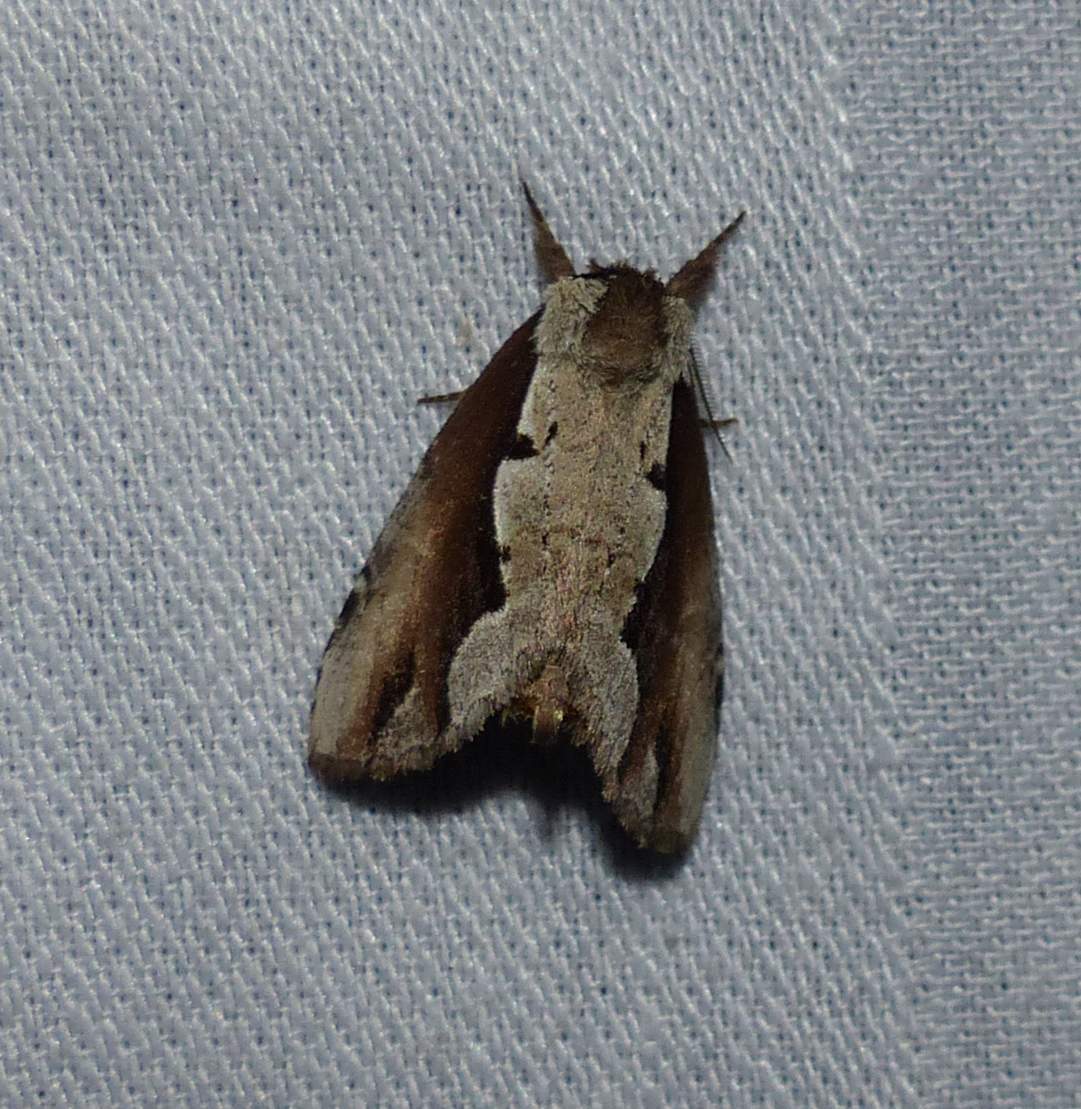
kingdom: Animalia
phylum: Arthropoda
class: Insecta
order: Lepidoptera
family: Notodontidae
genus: Nerice
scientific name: Nerice bidentata
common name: Double-toothed prominent
